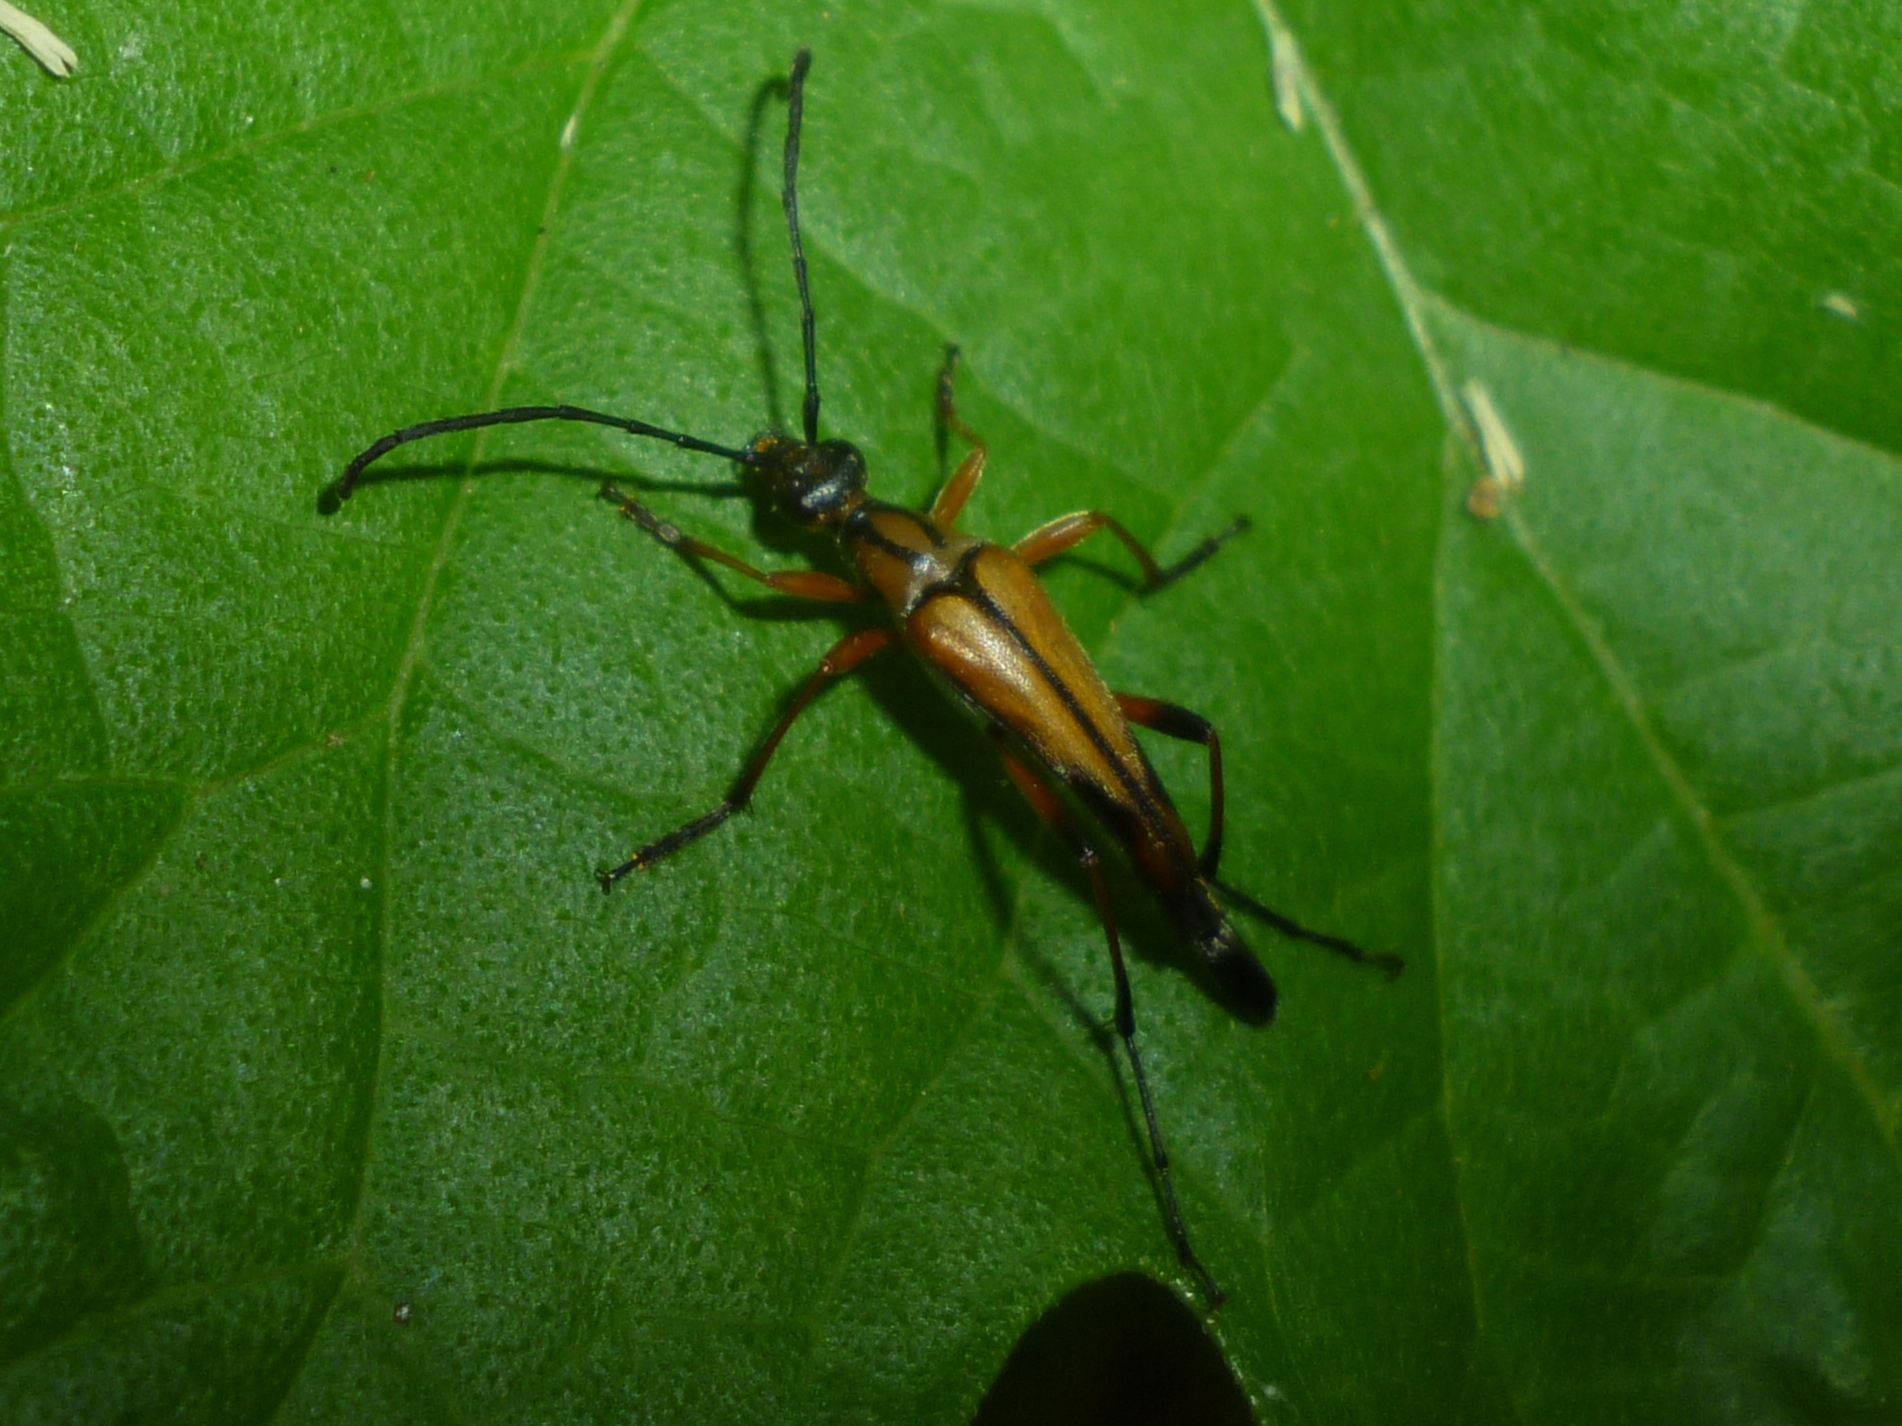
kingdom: Animalia
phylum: Arthropoda
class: Insecta
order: Coleoptera
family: Cerambycidae
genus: Strangalia
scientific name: Strangalia famelica
